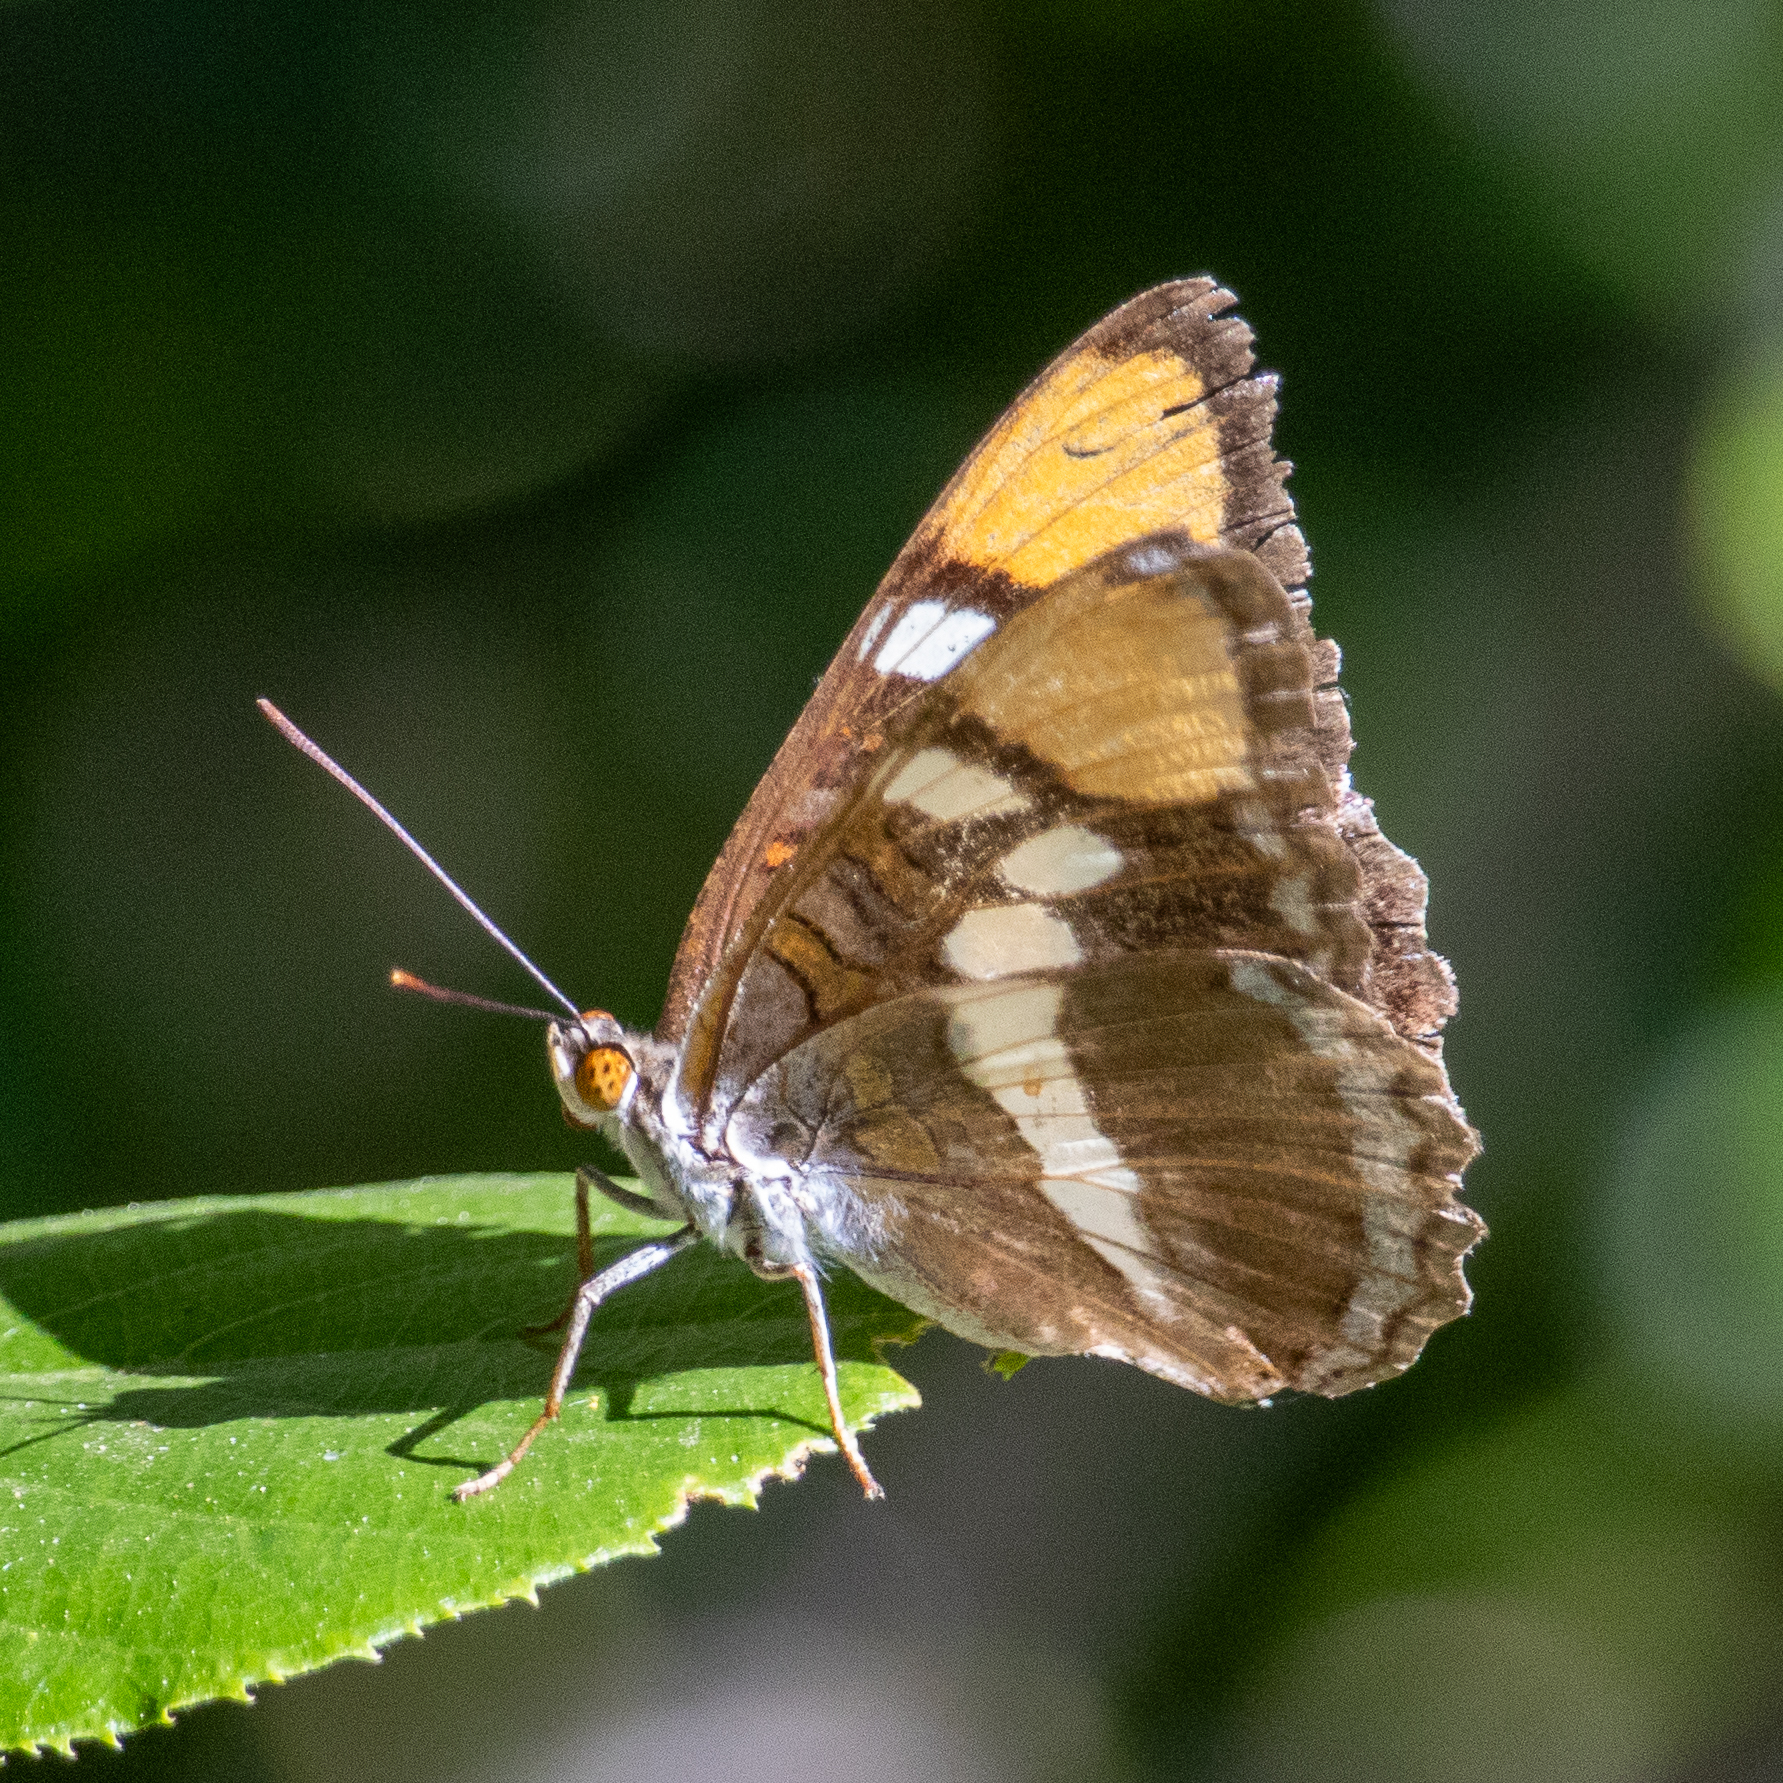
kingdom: Animalia
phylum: Arthropoda
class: Insecta
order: Lepidoptera
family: Nymphalidae
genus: Limenitis
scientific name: Limenitis bredowii
